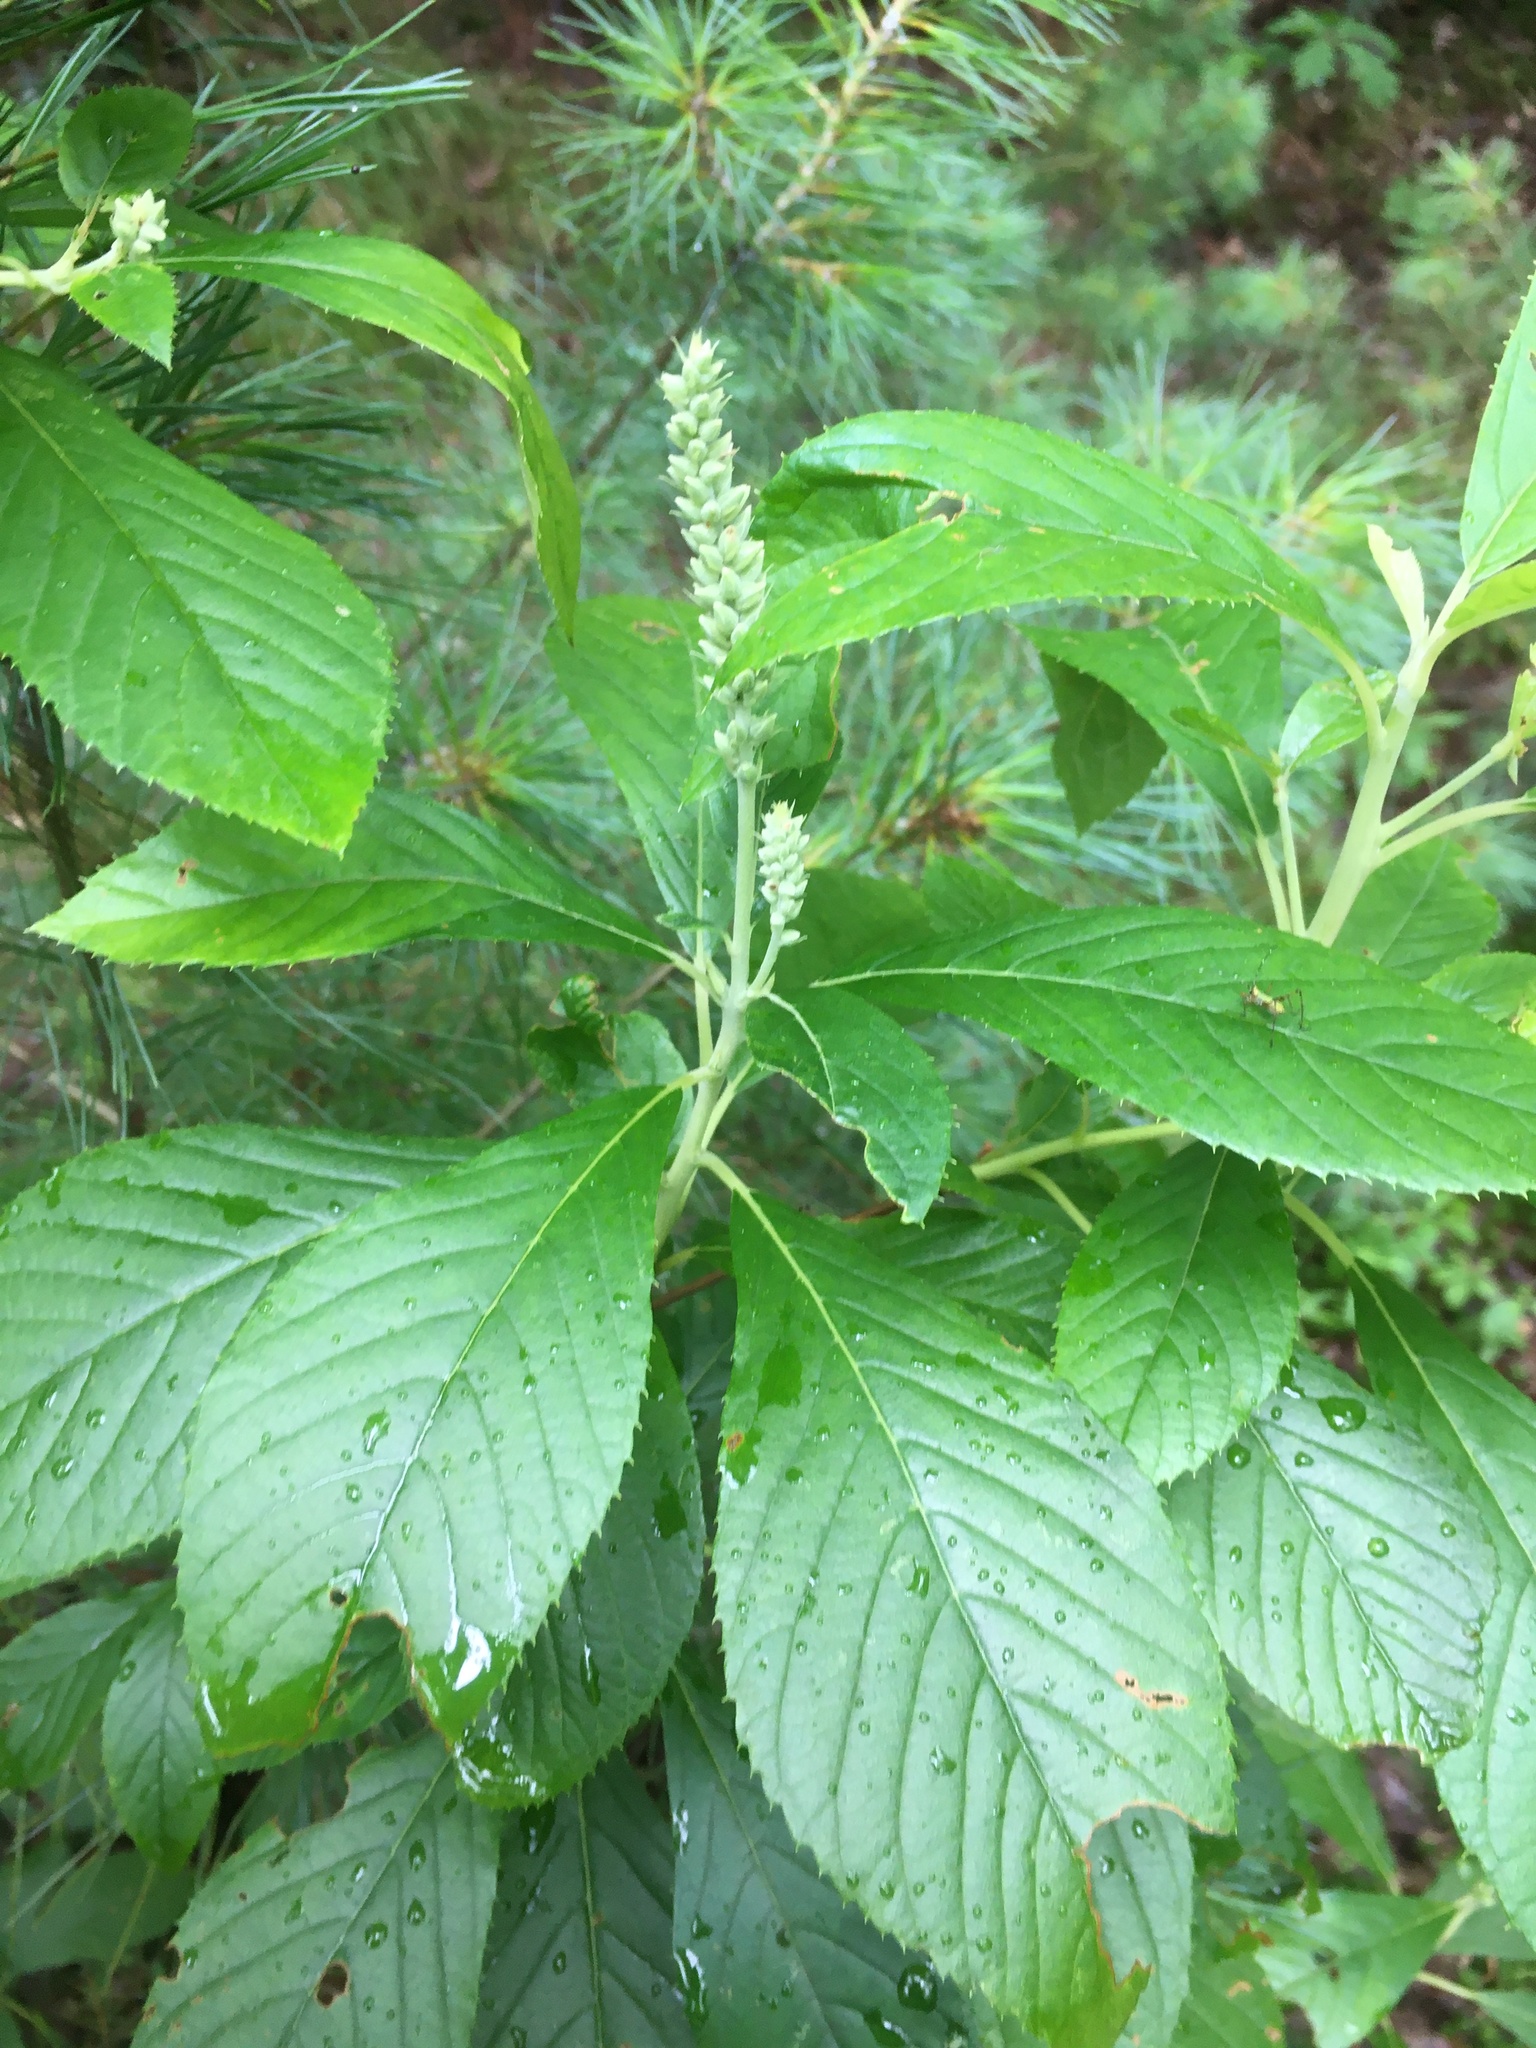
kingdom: Plantae
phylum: Tracheophyta
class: Magnoliopsida
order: Ericales
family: Clethraceae
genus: Clethra
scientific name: Clethra alnifolia
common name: Sweet pepperbush
